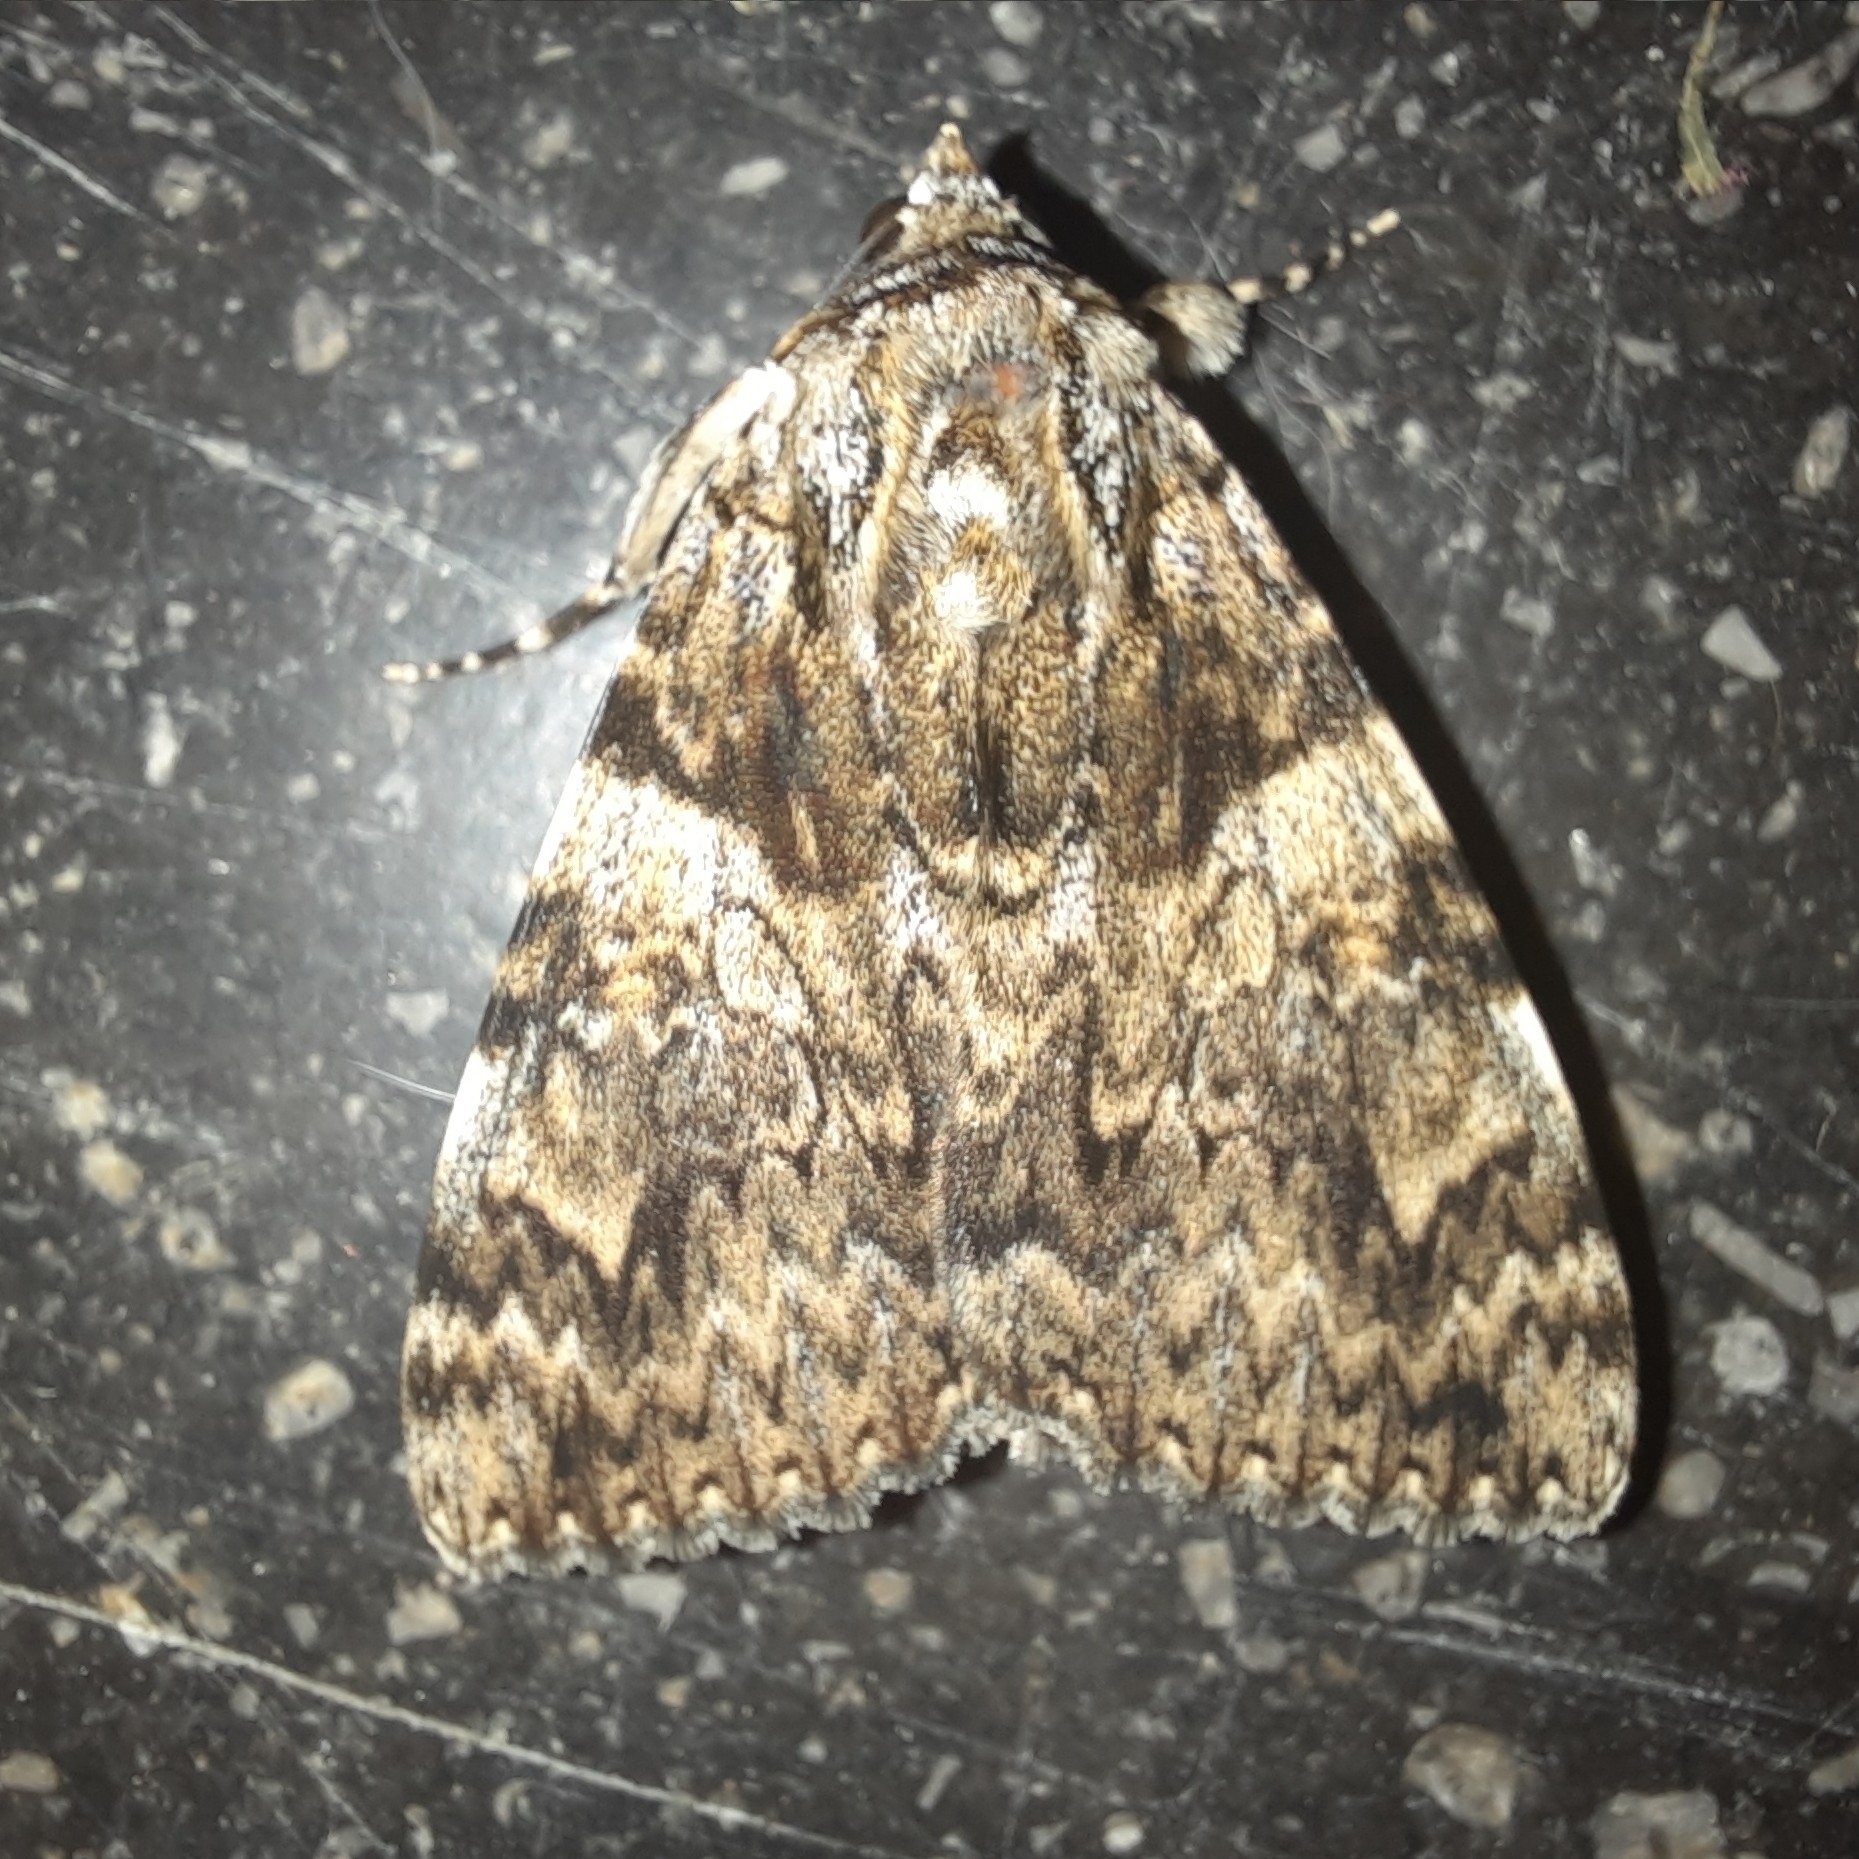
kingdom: Animalia
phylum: Arthropoda
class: Insecta
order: Lepidoptera
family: Erebidae
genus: Catocala
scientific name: Catocala promissa
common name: Light crimson underwing
